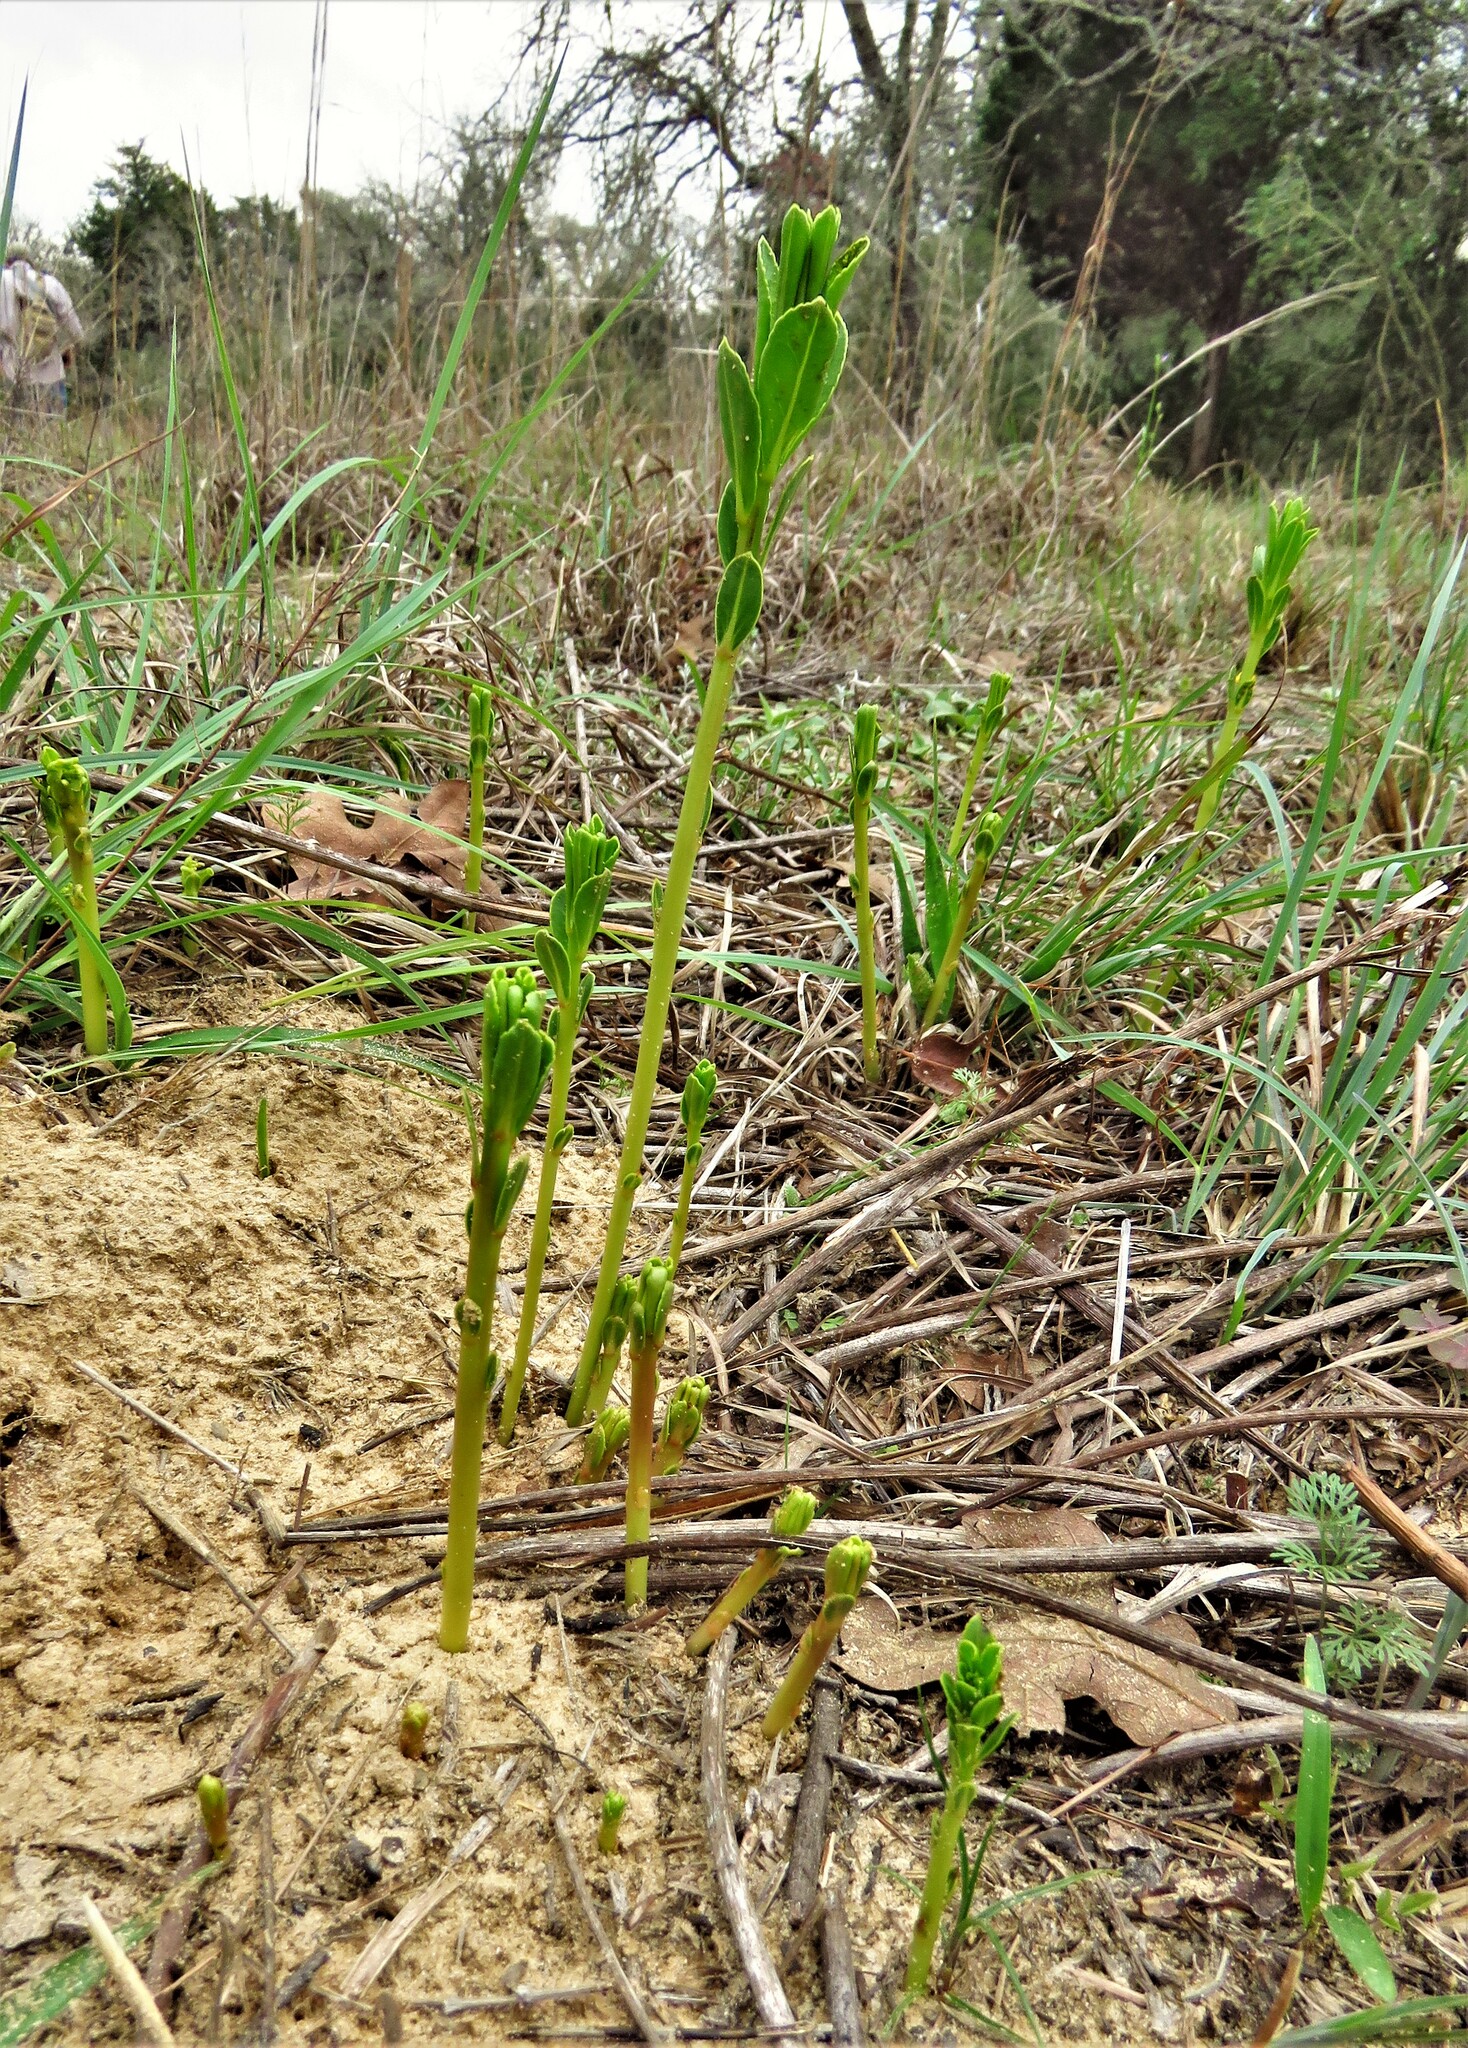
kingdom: Plantae
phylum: Tracheophyta
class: Magnoliopsida
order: Malpighiales
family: Euphorbiaceae
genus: Stillingia
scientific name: Stillingia sylvatica
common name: Queen's-delight
